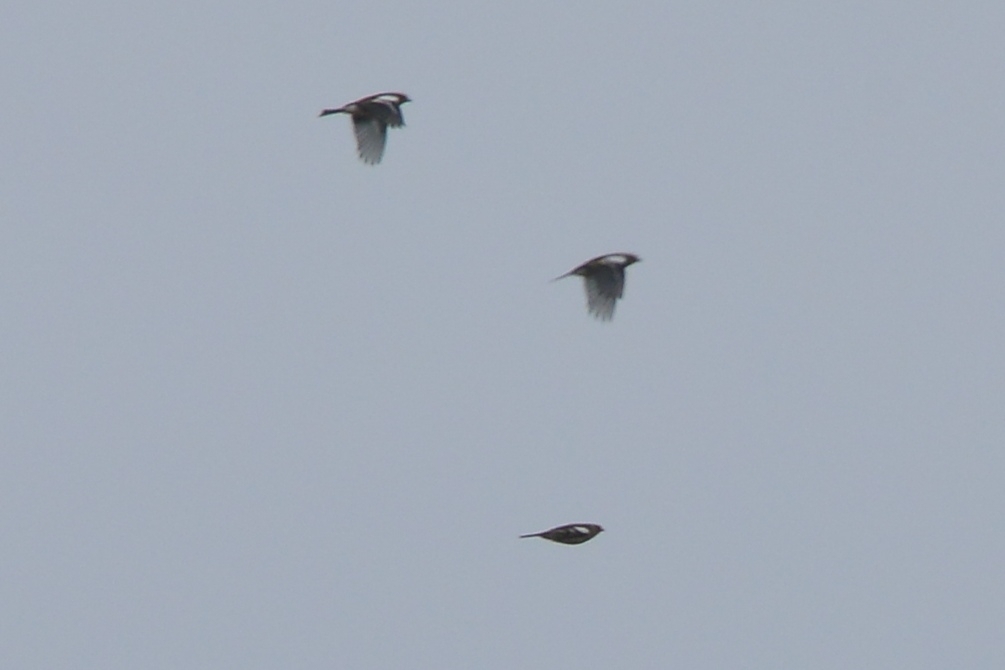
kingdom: Animalia
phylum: Chordata
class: Aves
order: Passeriformes
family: Fringillidae
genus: Fringilla
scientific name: Fringilla coelebs
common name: Common chaffinch
